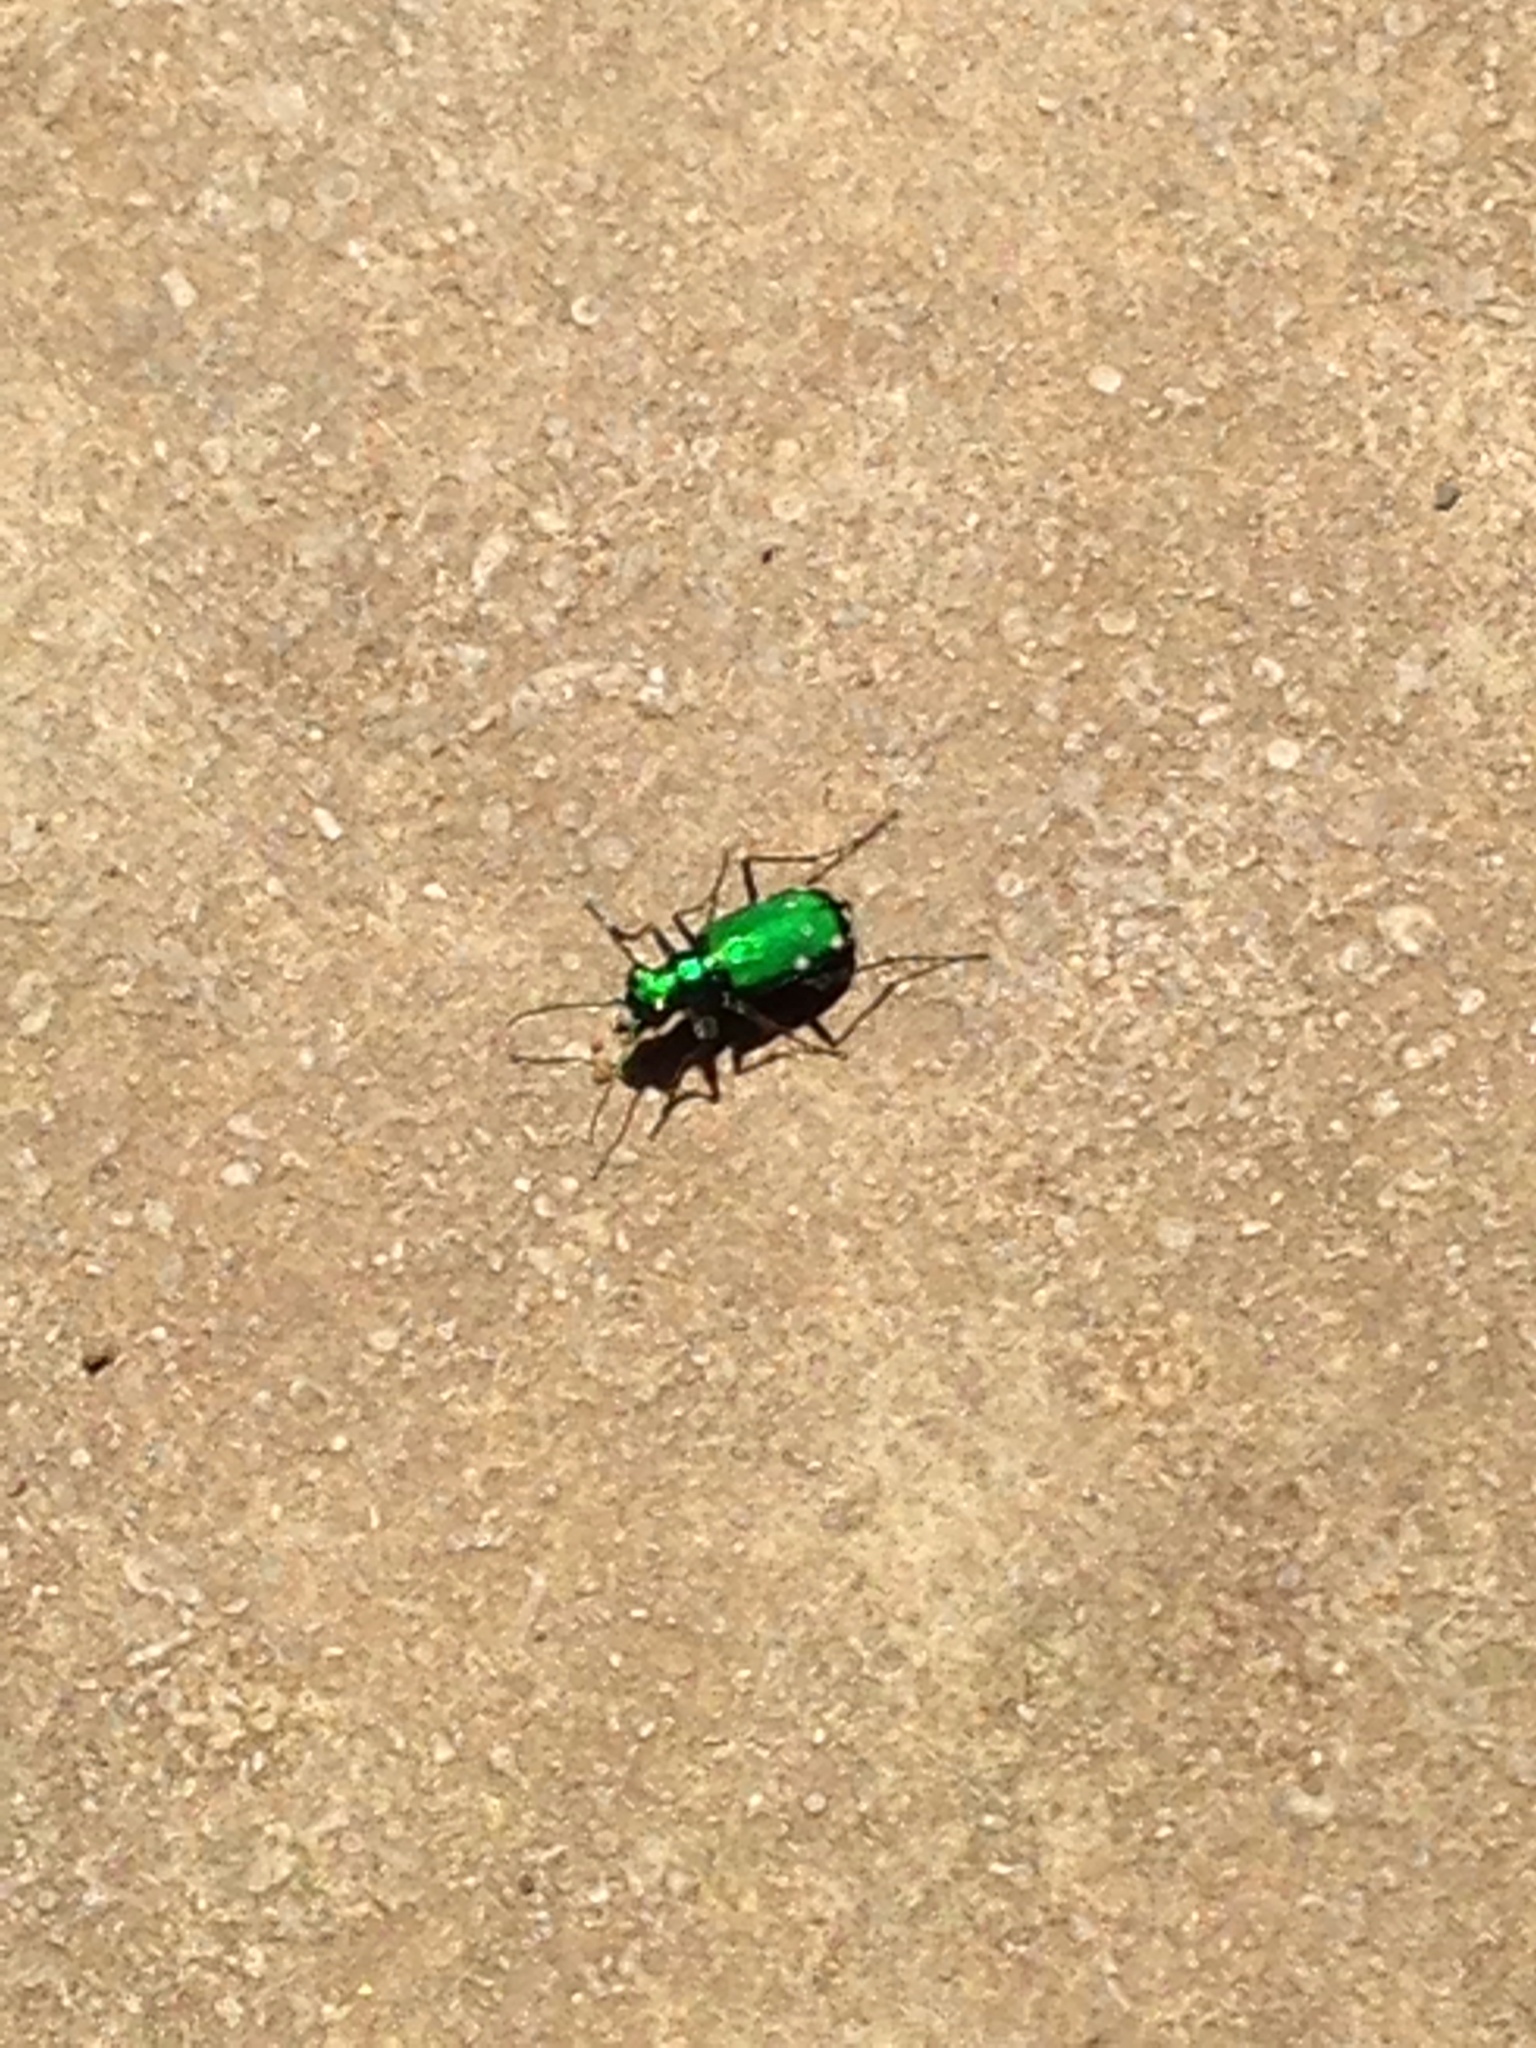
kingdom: Animalia
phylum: Arthropoda
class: Insecta
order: Coleoptera
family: Carabidae
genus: Cicindela
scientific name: Cicindela sexguttata
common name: Six-spotted tiger beetle
